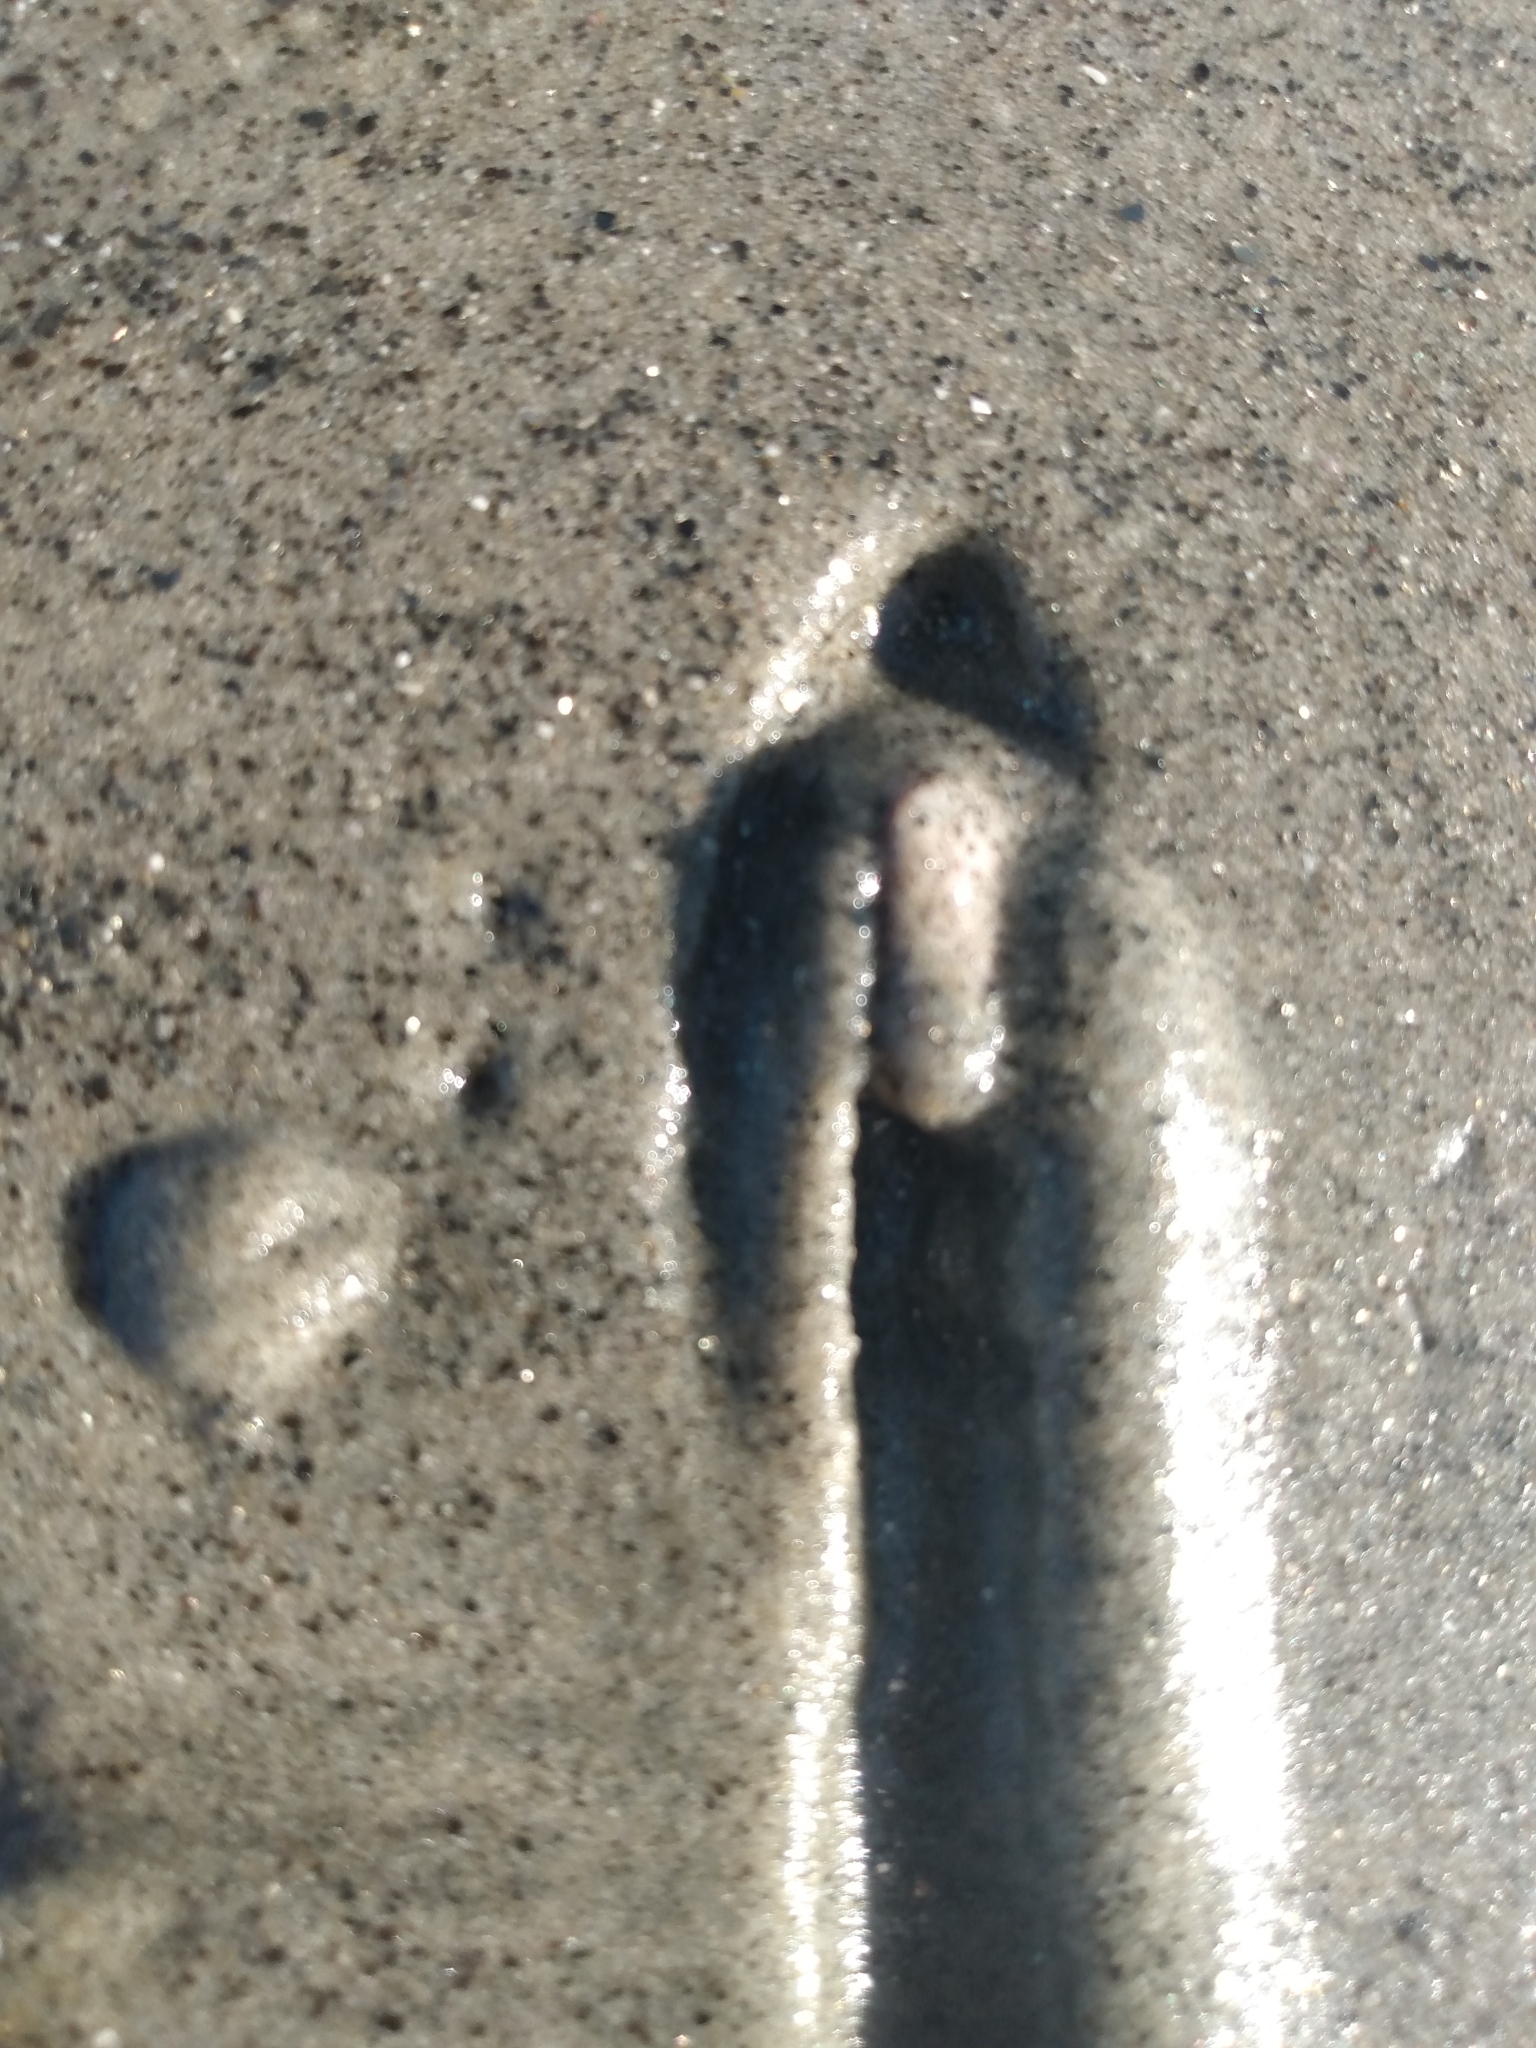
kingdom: Animalia
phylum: Mollusca
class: Bivalvia
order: Cardiida
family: Donacidae
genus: Donax
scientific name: Donax gouldii
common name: Gould beanclam
